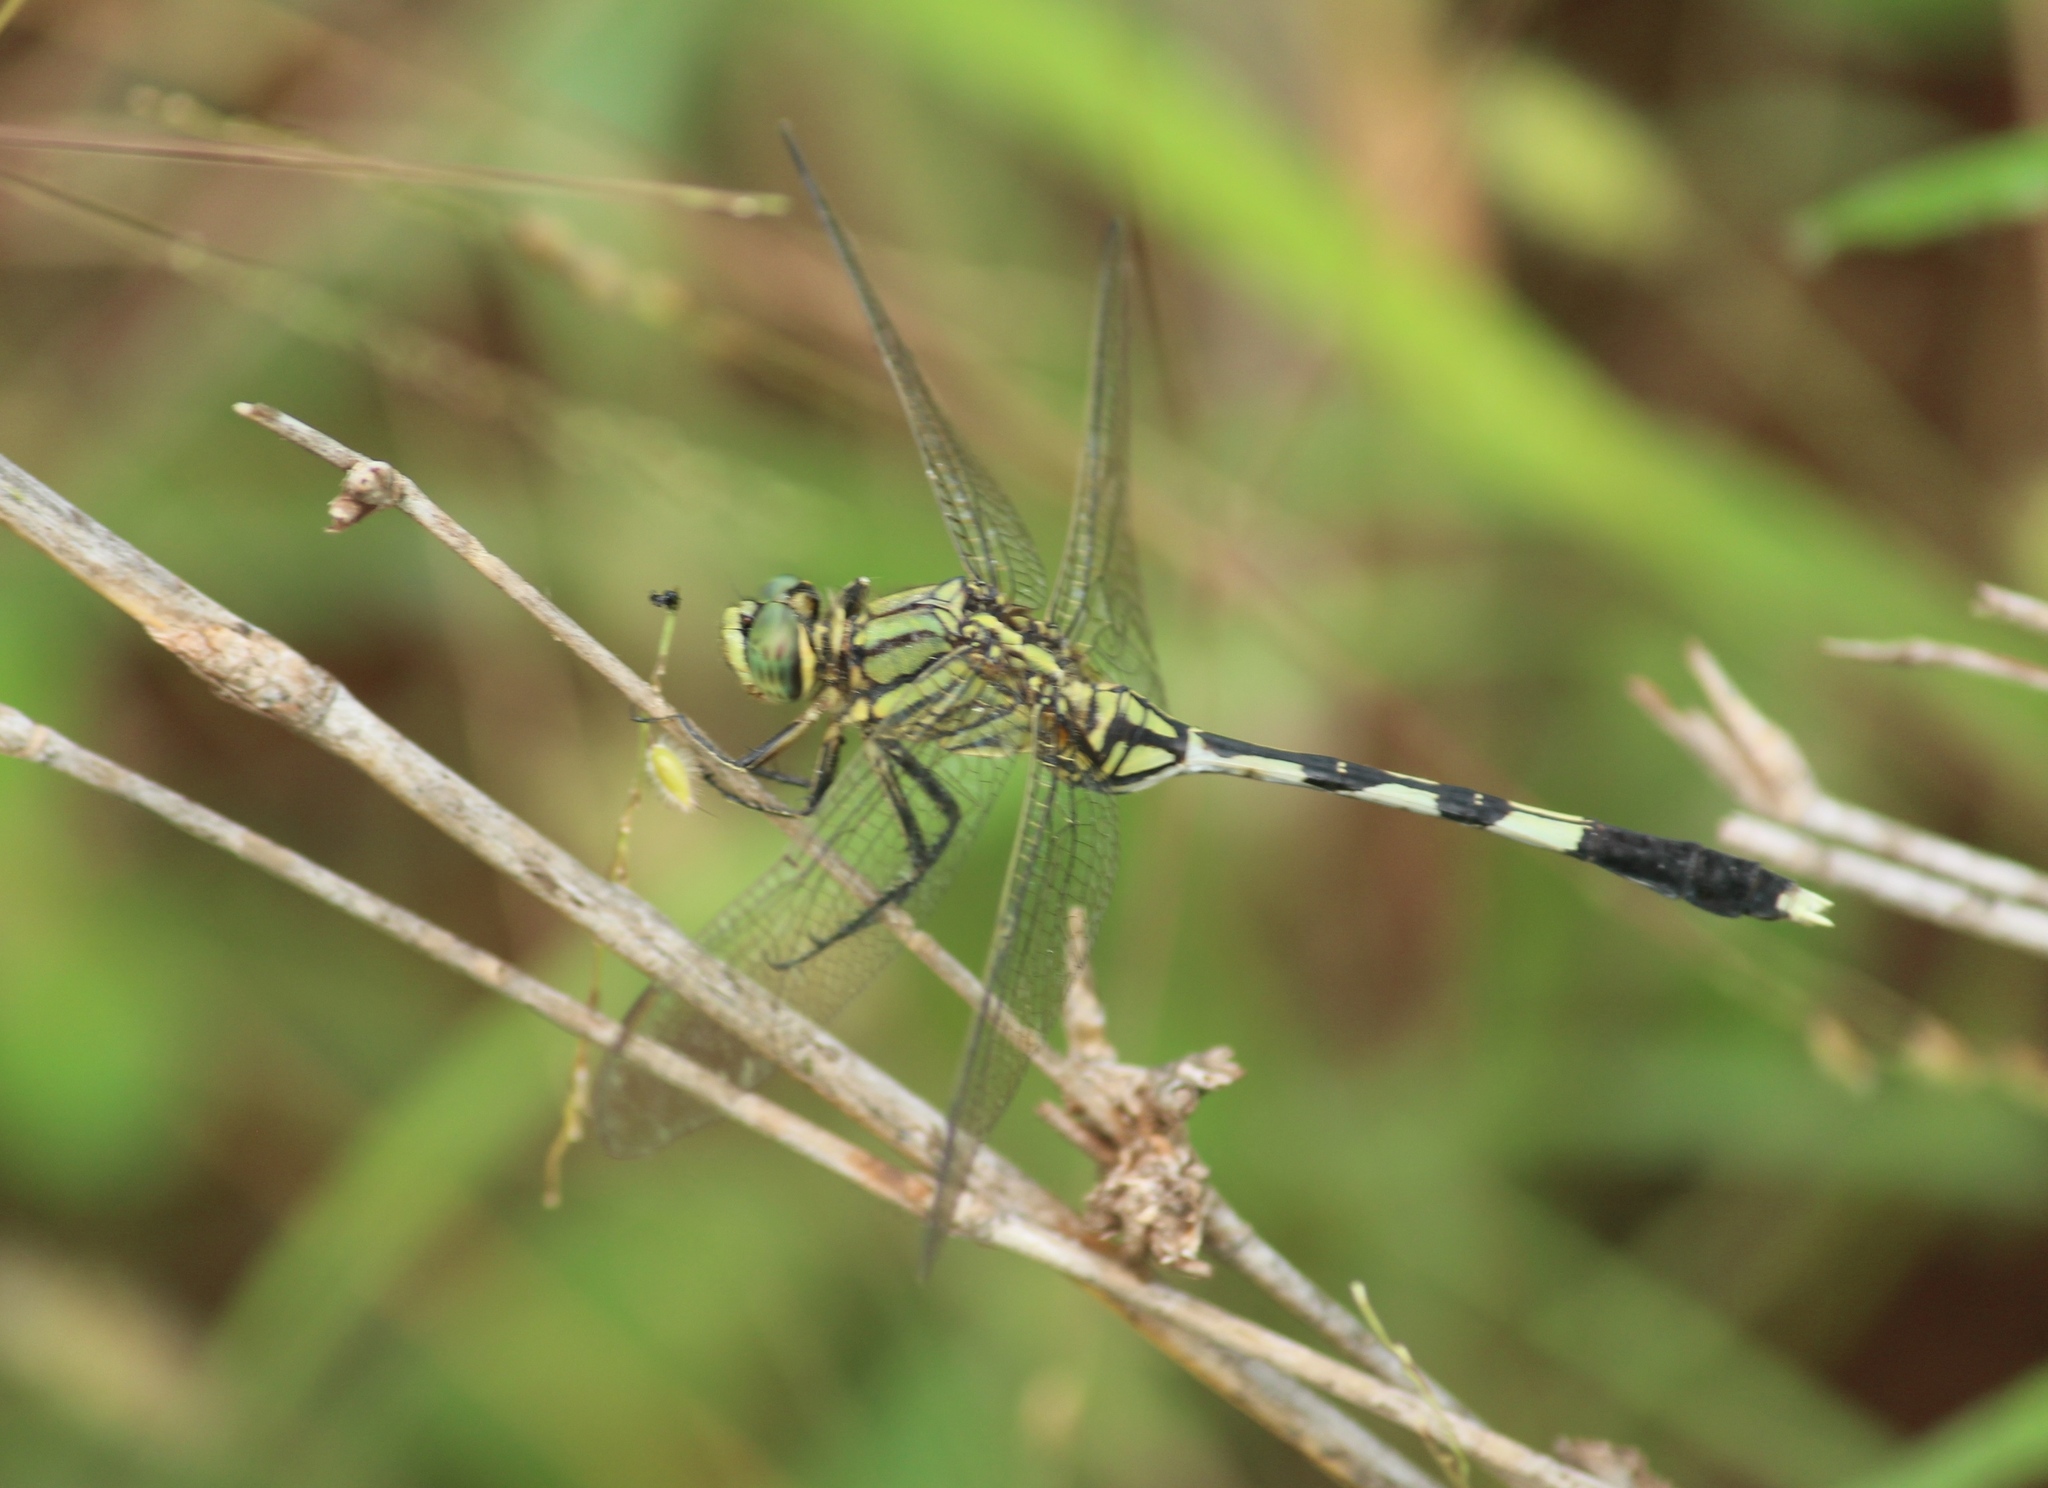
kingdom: Animalia
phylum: Arthropoda
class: Insecta
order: Odonata
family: Libellulidae
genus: Orthetrum
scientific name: Orthetrum sabina
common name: Slender skimmer
